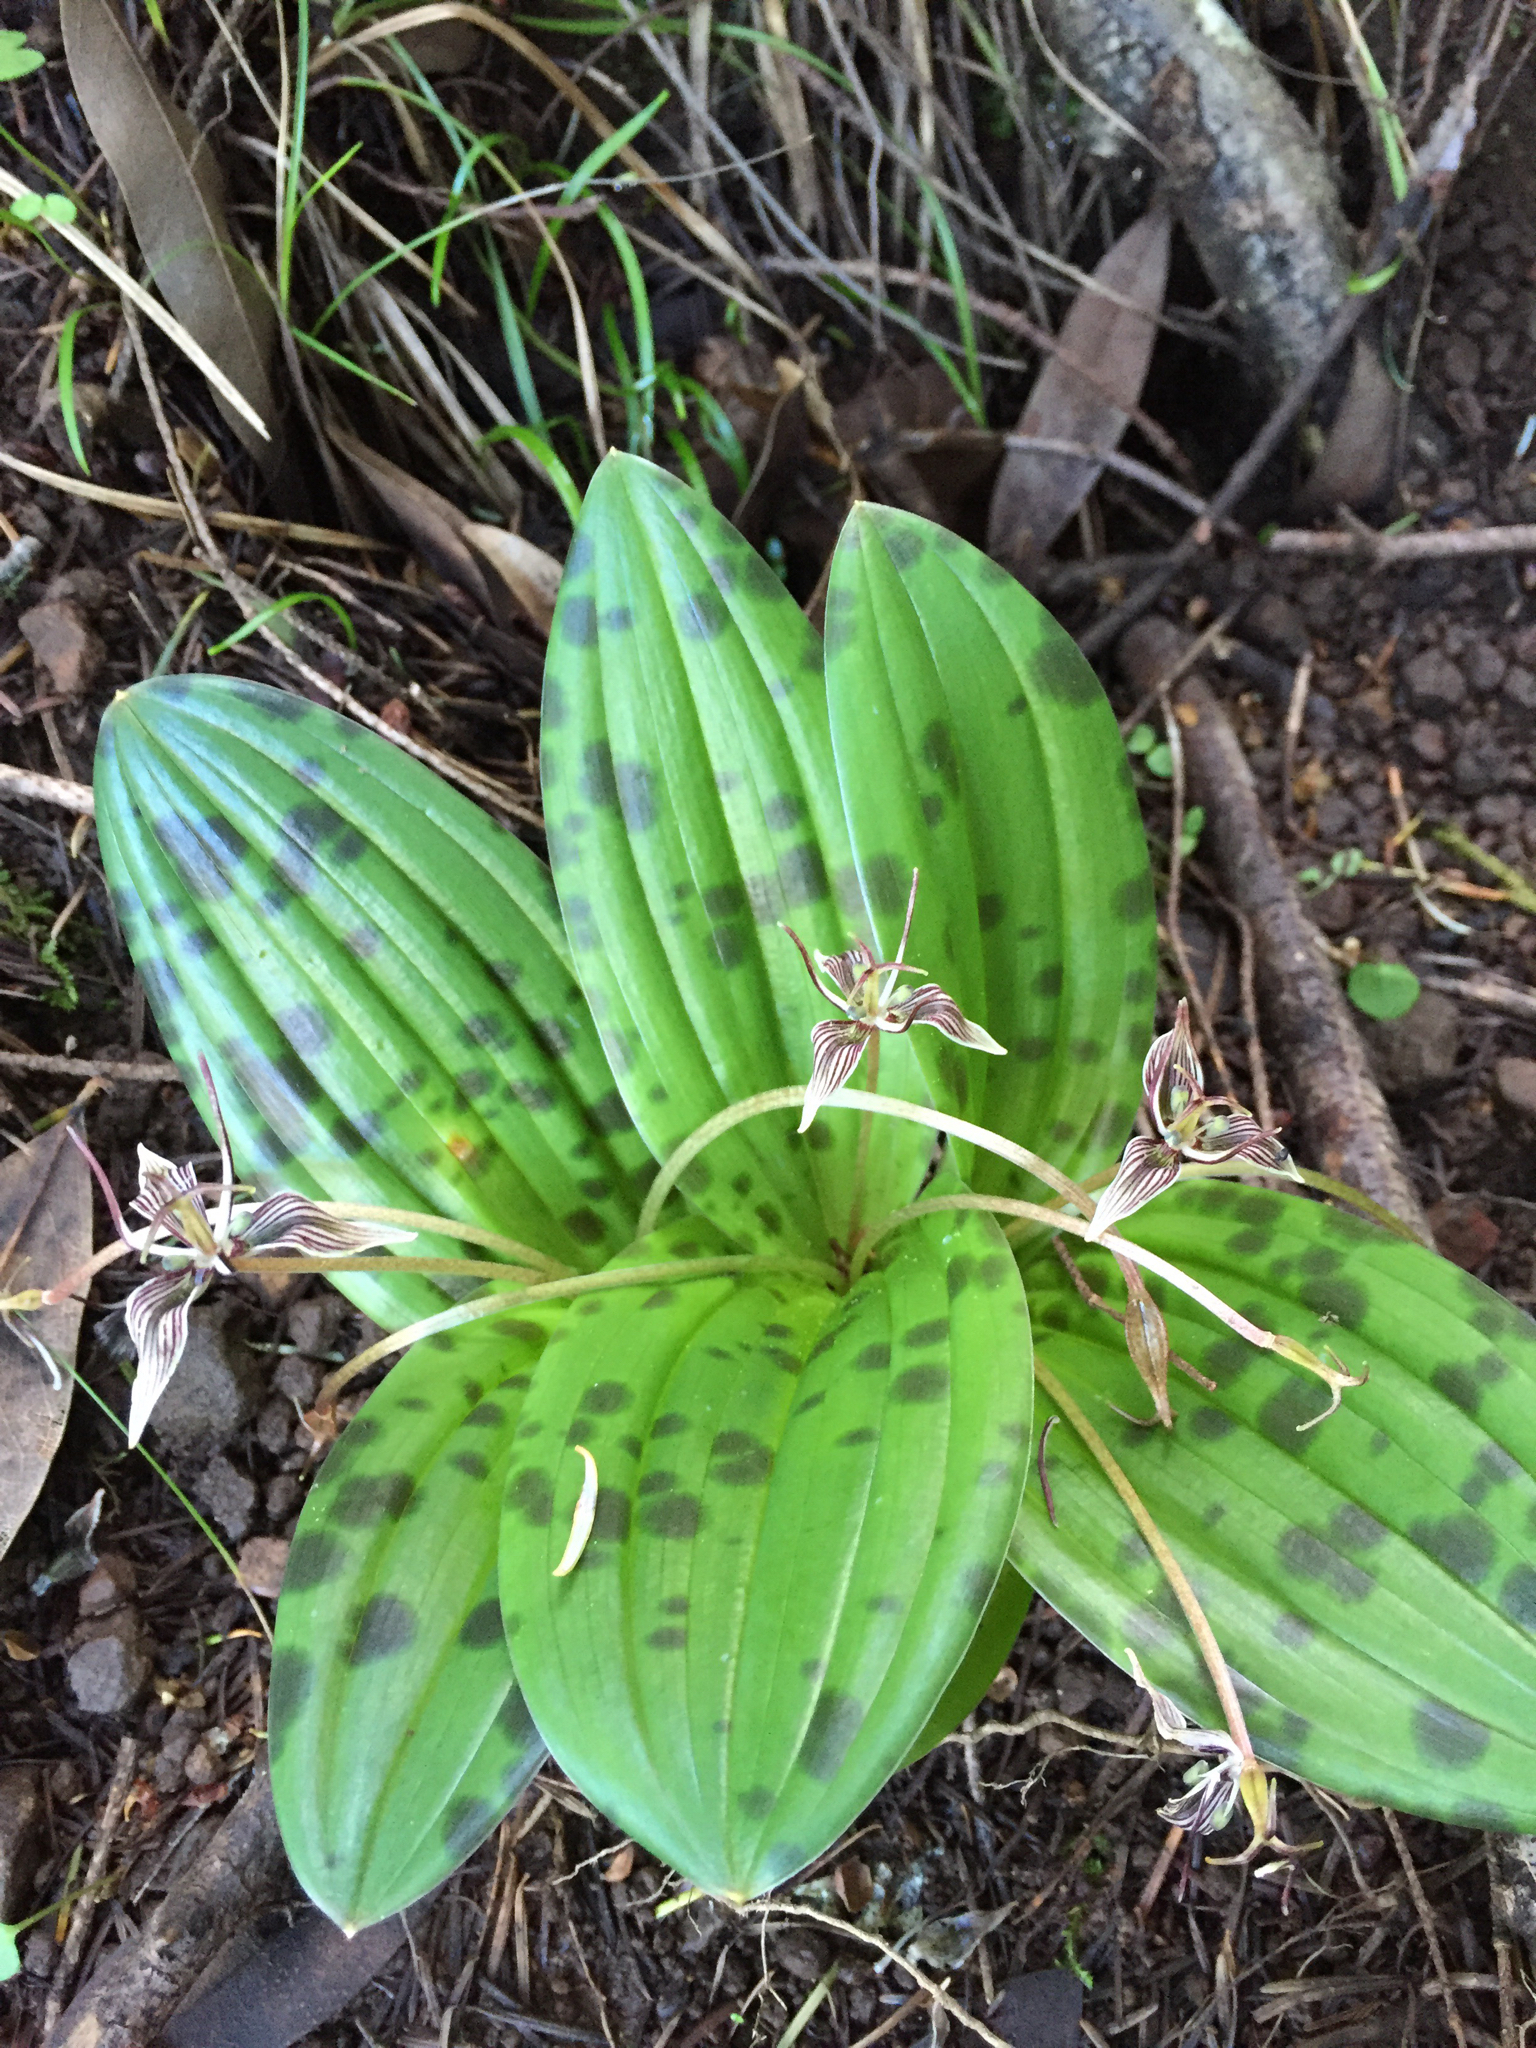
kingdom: Plantae
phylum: Tracheophyta
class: Liliopsida
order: Liliales
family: Liliaceae
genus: Scoliopus
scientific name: Scoliopus bigelovii
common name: Foetid adder's-tongue
